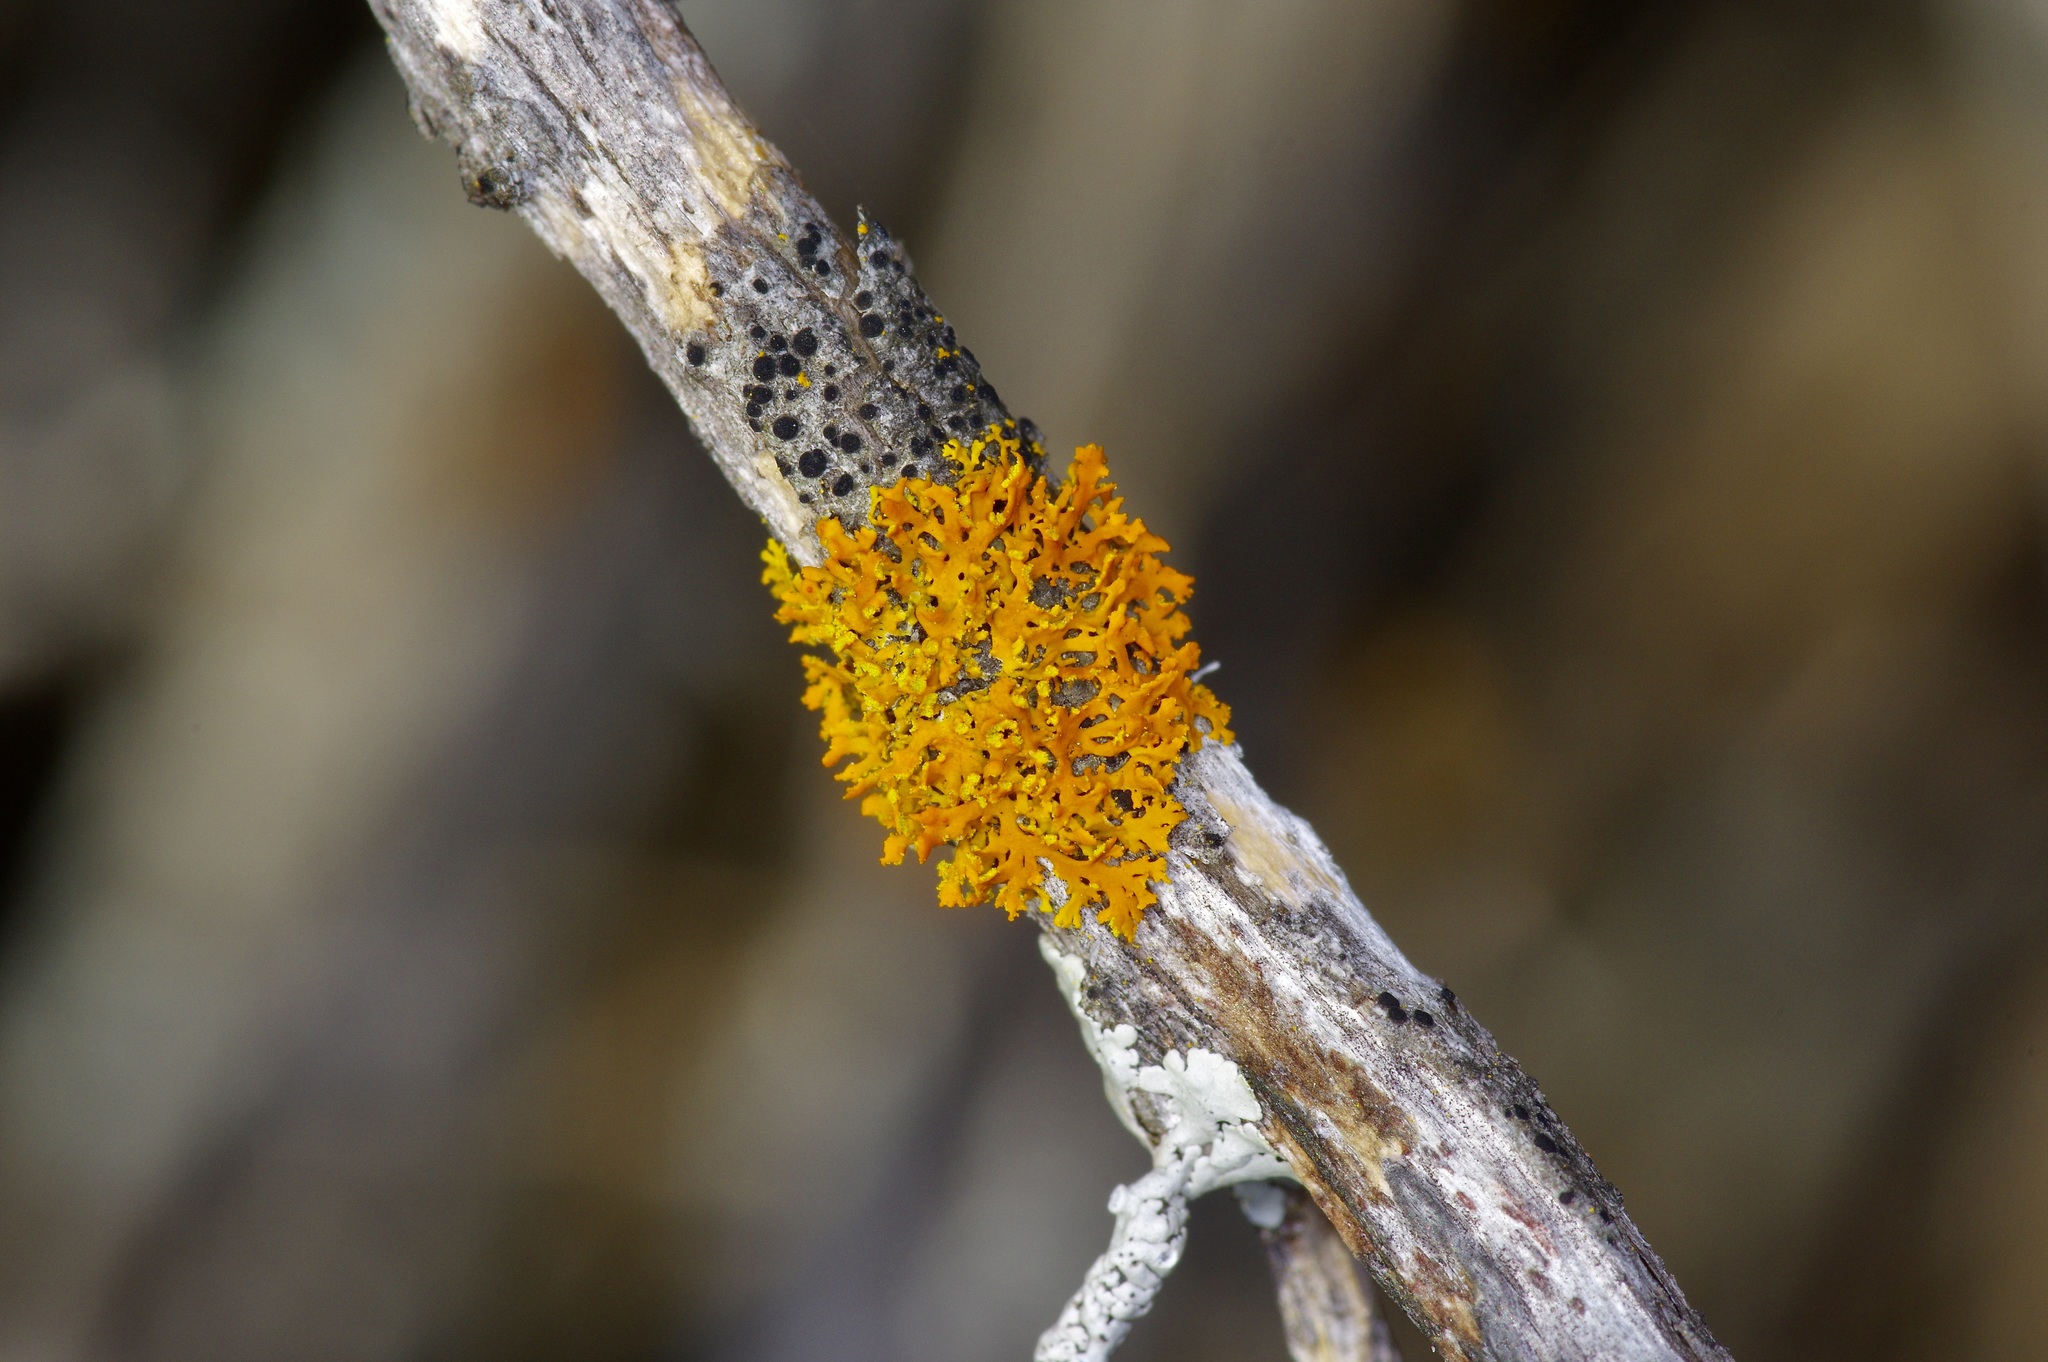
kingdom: Fungi
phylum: Ascomycota
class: Lecanoromycetes
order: Teloschistales
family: Teloschistaceae
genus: Oxneria
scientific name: Oxneria fallax
